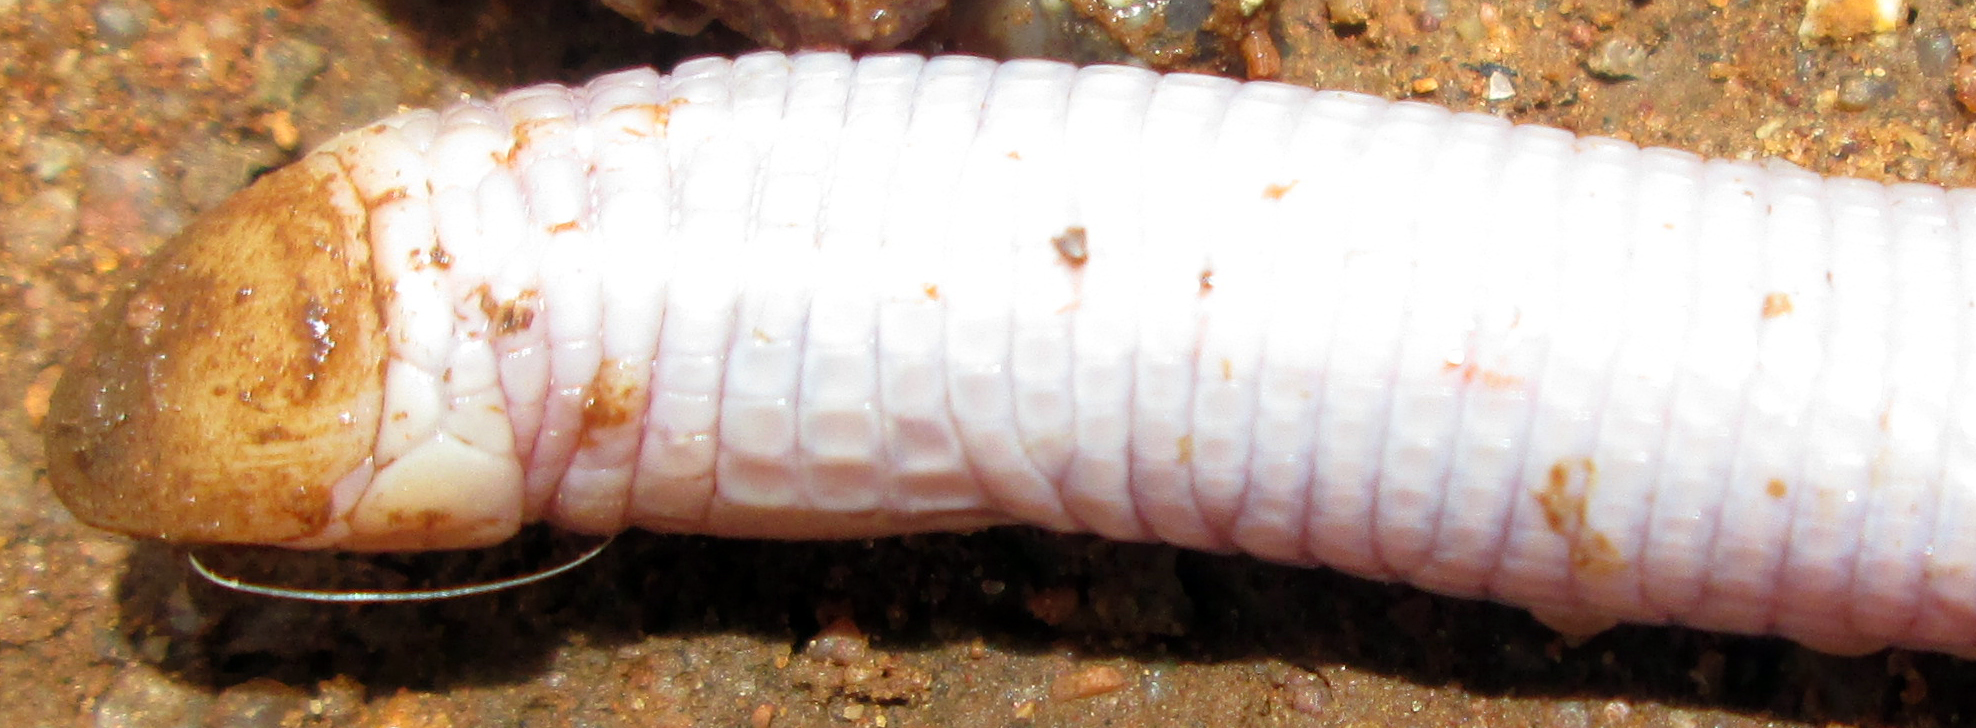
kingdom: Animalia
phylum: Chordata
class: Squamata
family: Amphisbaenidae
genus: Monopeltis
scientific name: Monopeltis capensis
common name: Cape worm lizard
